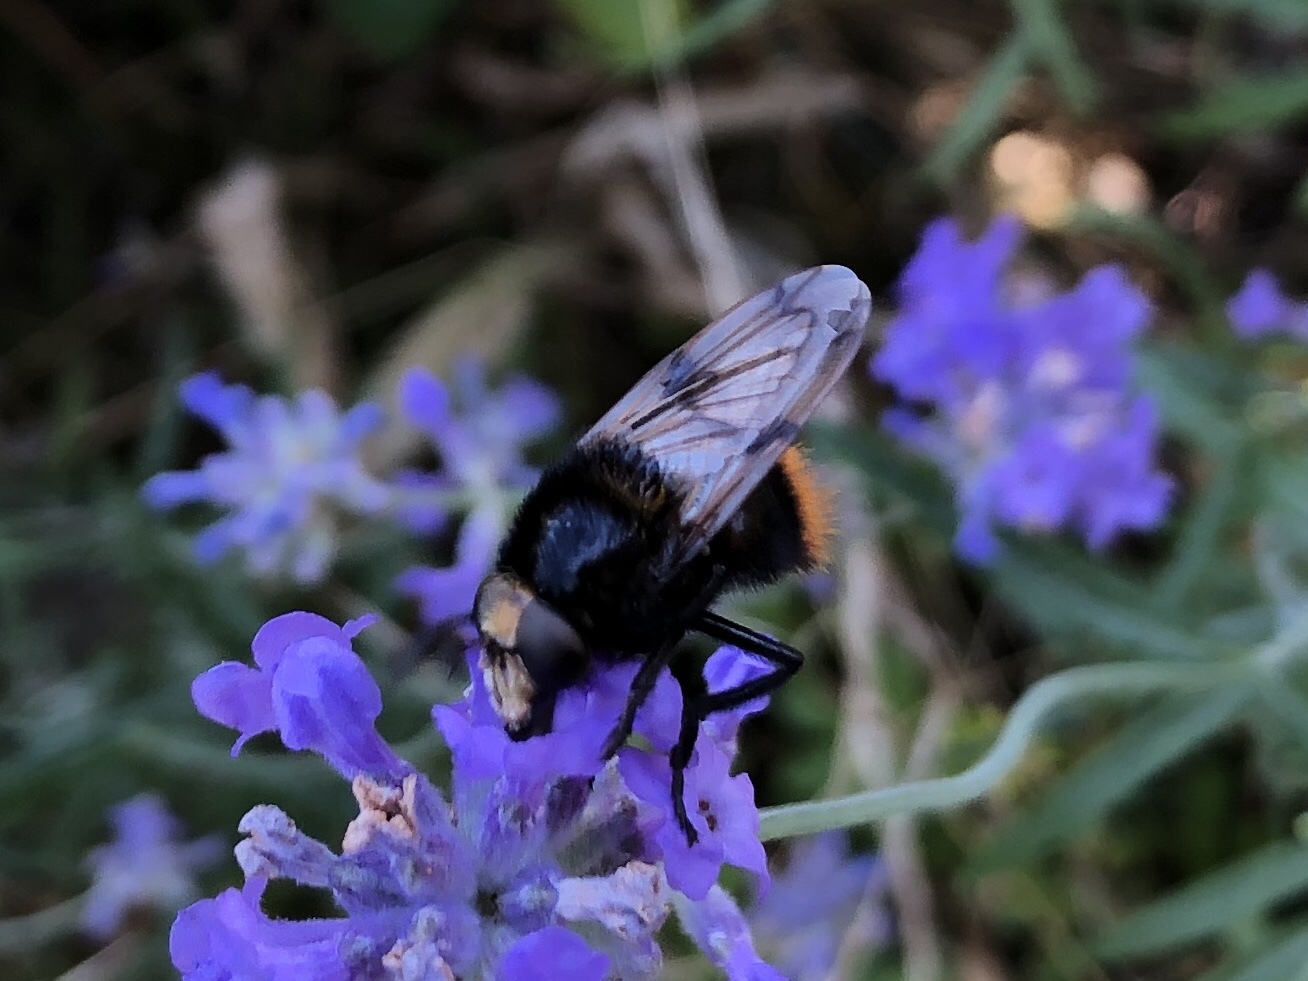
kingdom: Animalia
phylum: Arthropoda
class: Insecta
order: Diptera
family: Syrphidae
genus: Volucella
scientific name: Volucella bombylans
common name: Bumble bee hover fly
